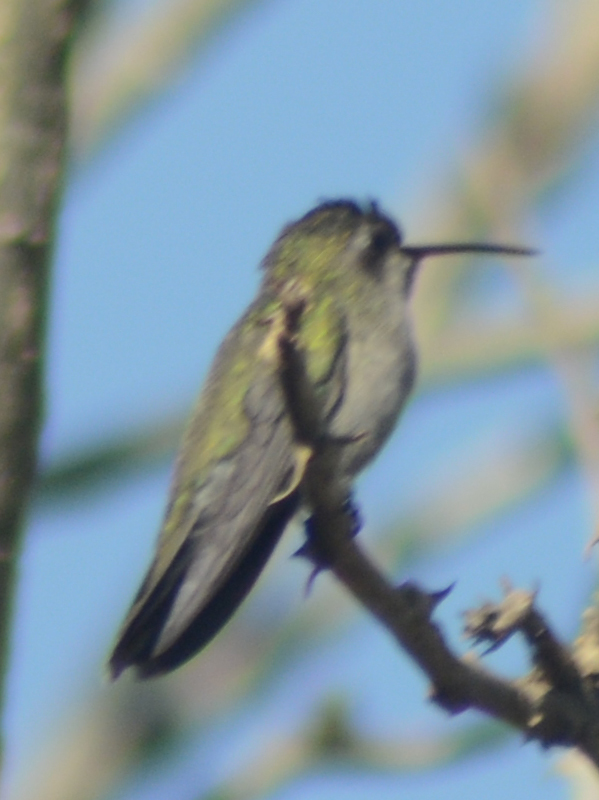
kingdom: Animalia
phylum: Chordata
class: Aves
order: Apodiformes
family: Trochilidae
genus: Cynanthus
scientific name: Cynanthus latirostris
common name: Broad-billed hummingbird
